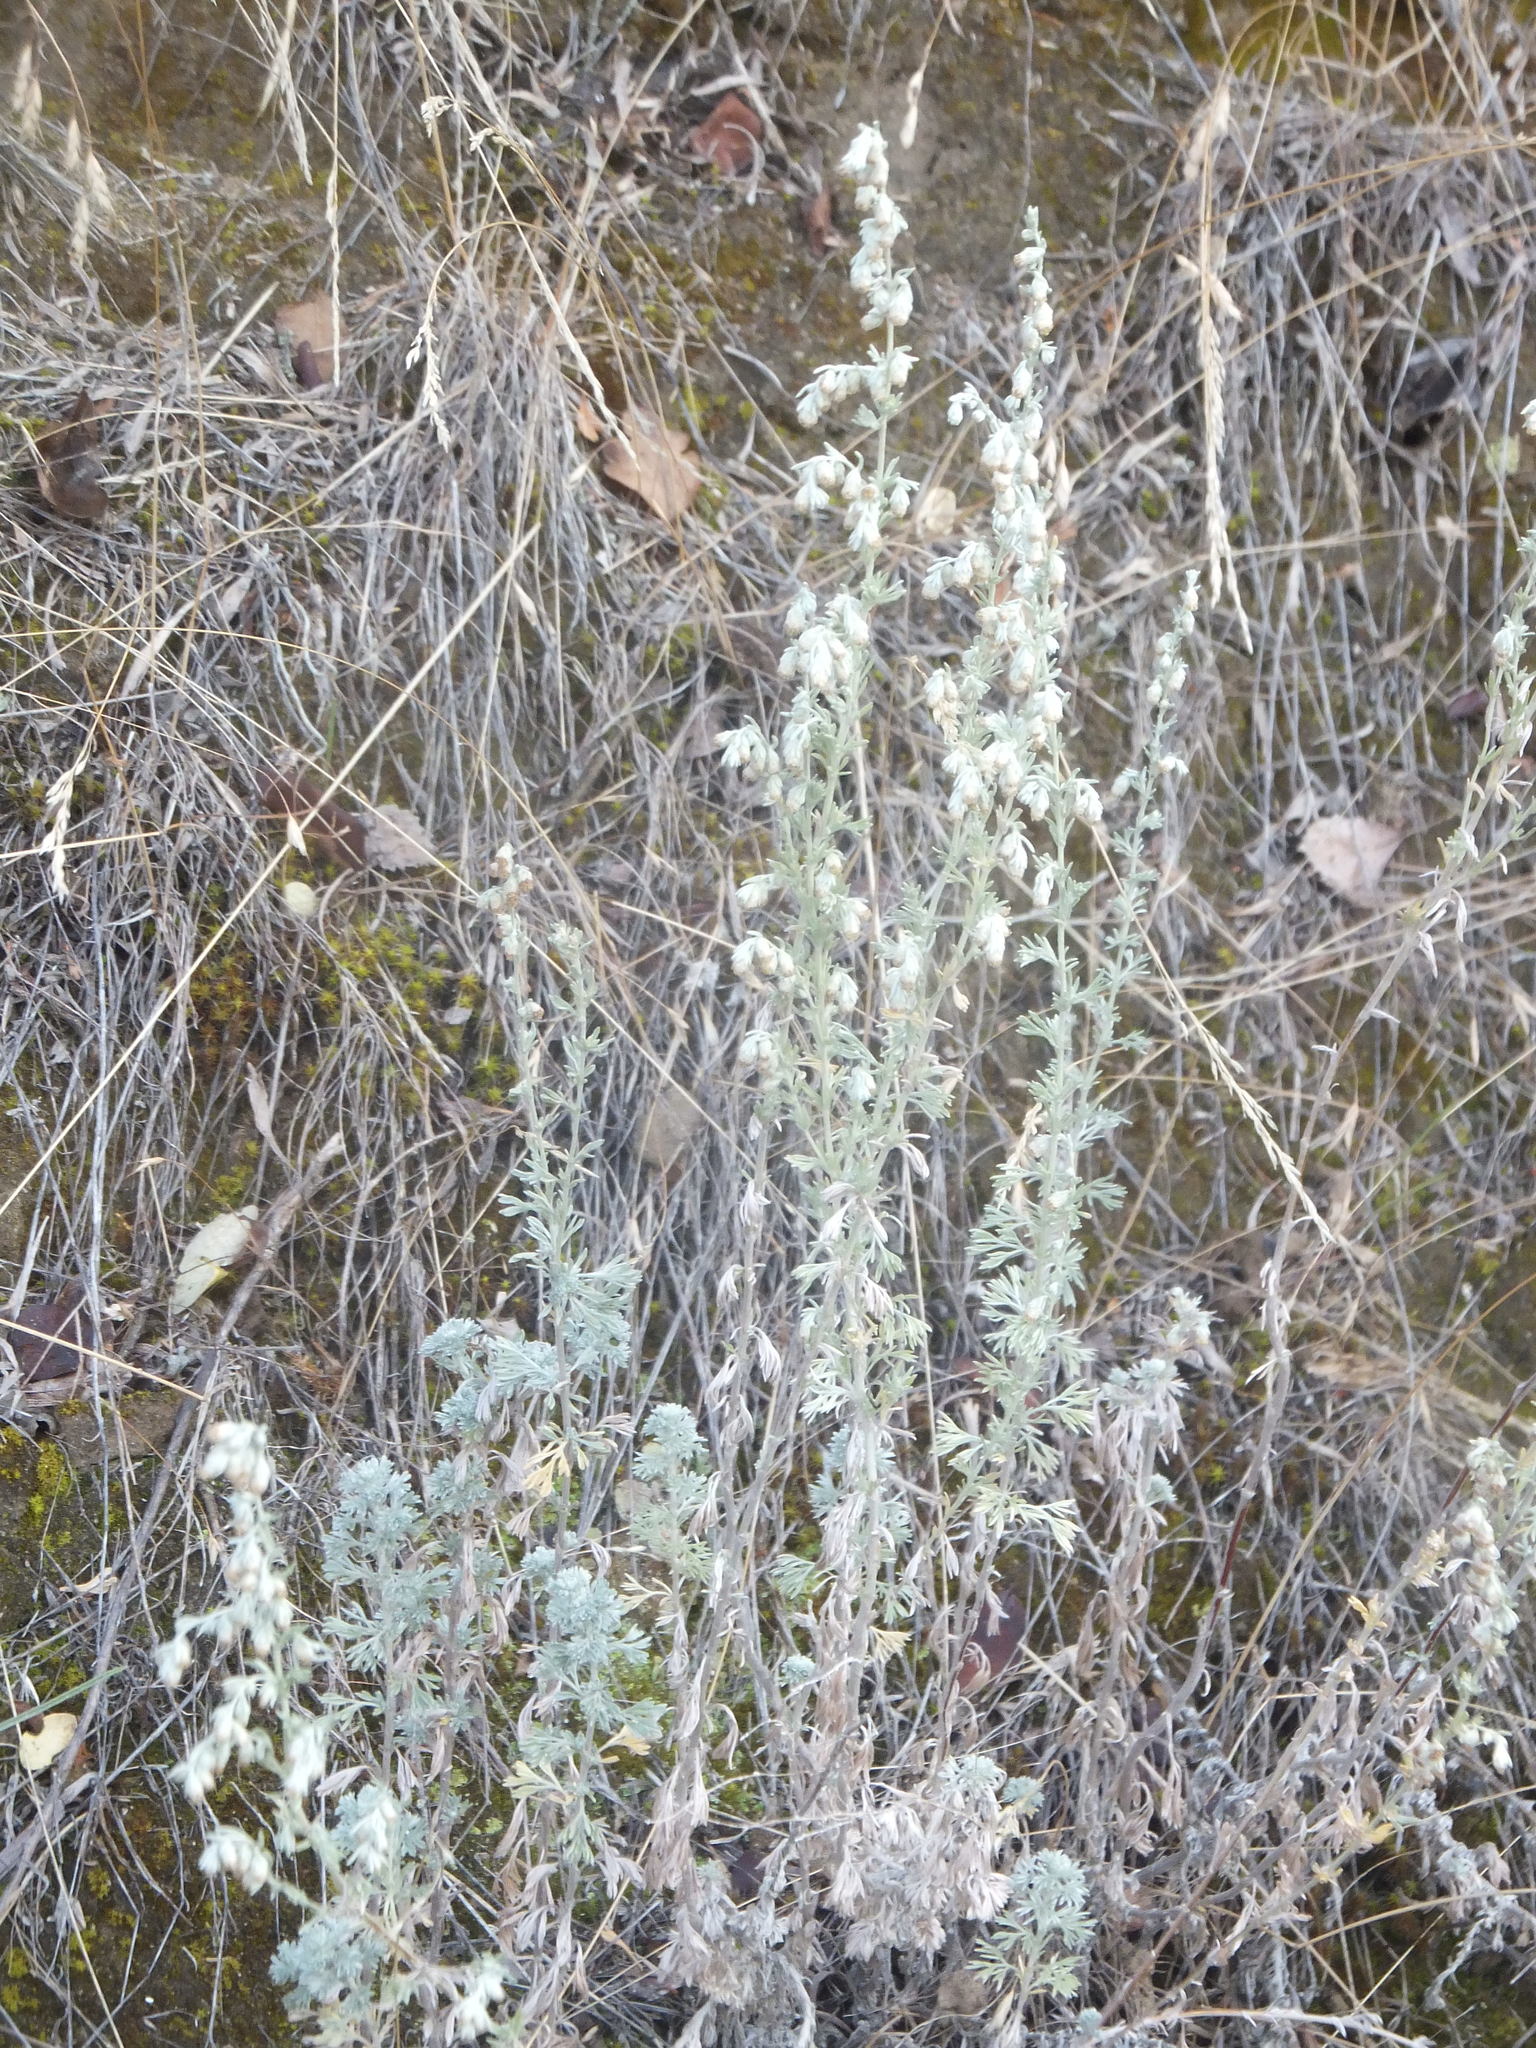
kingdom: Plantae
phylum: Tracheophyta
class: Magnoliopsida
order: Asterales
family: Asteraceae
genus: Artemisia
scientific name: Artemisia frigida
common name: Prairie sagewort
